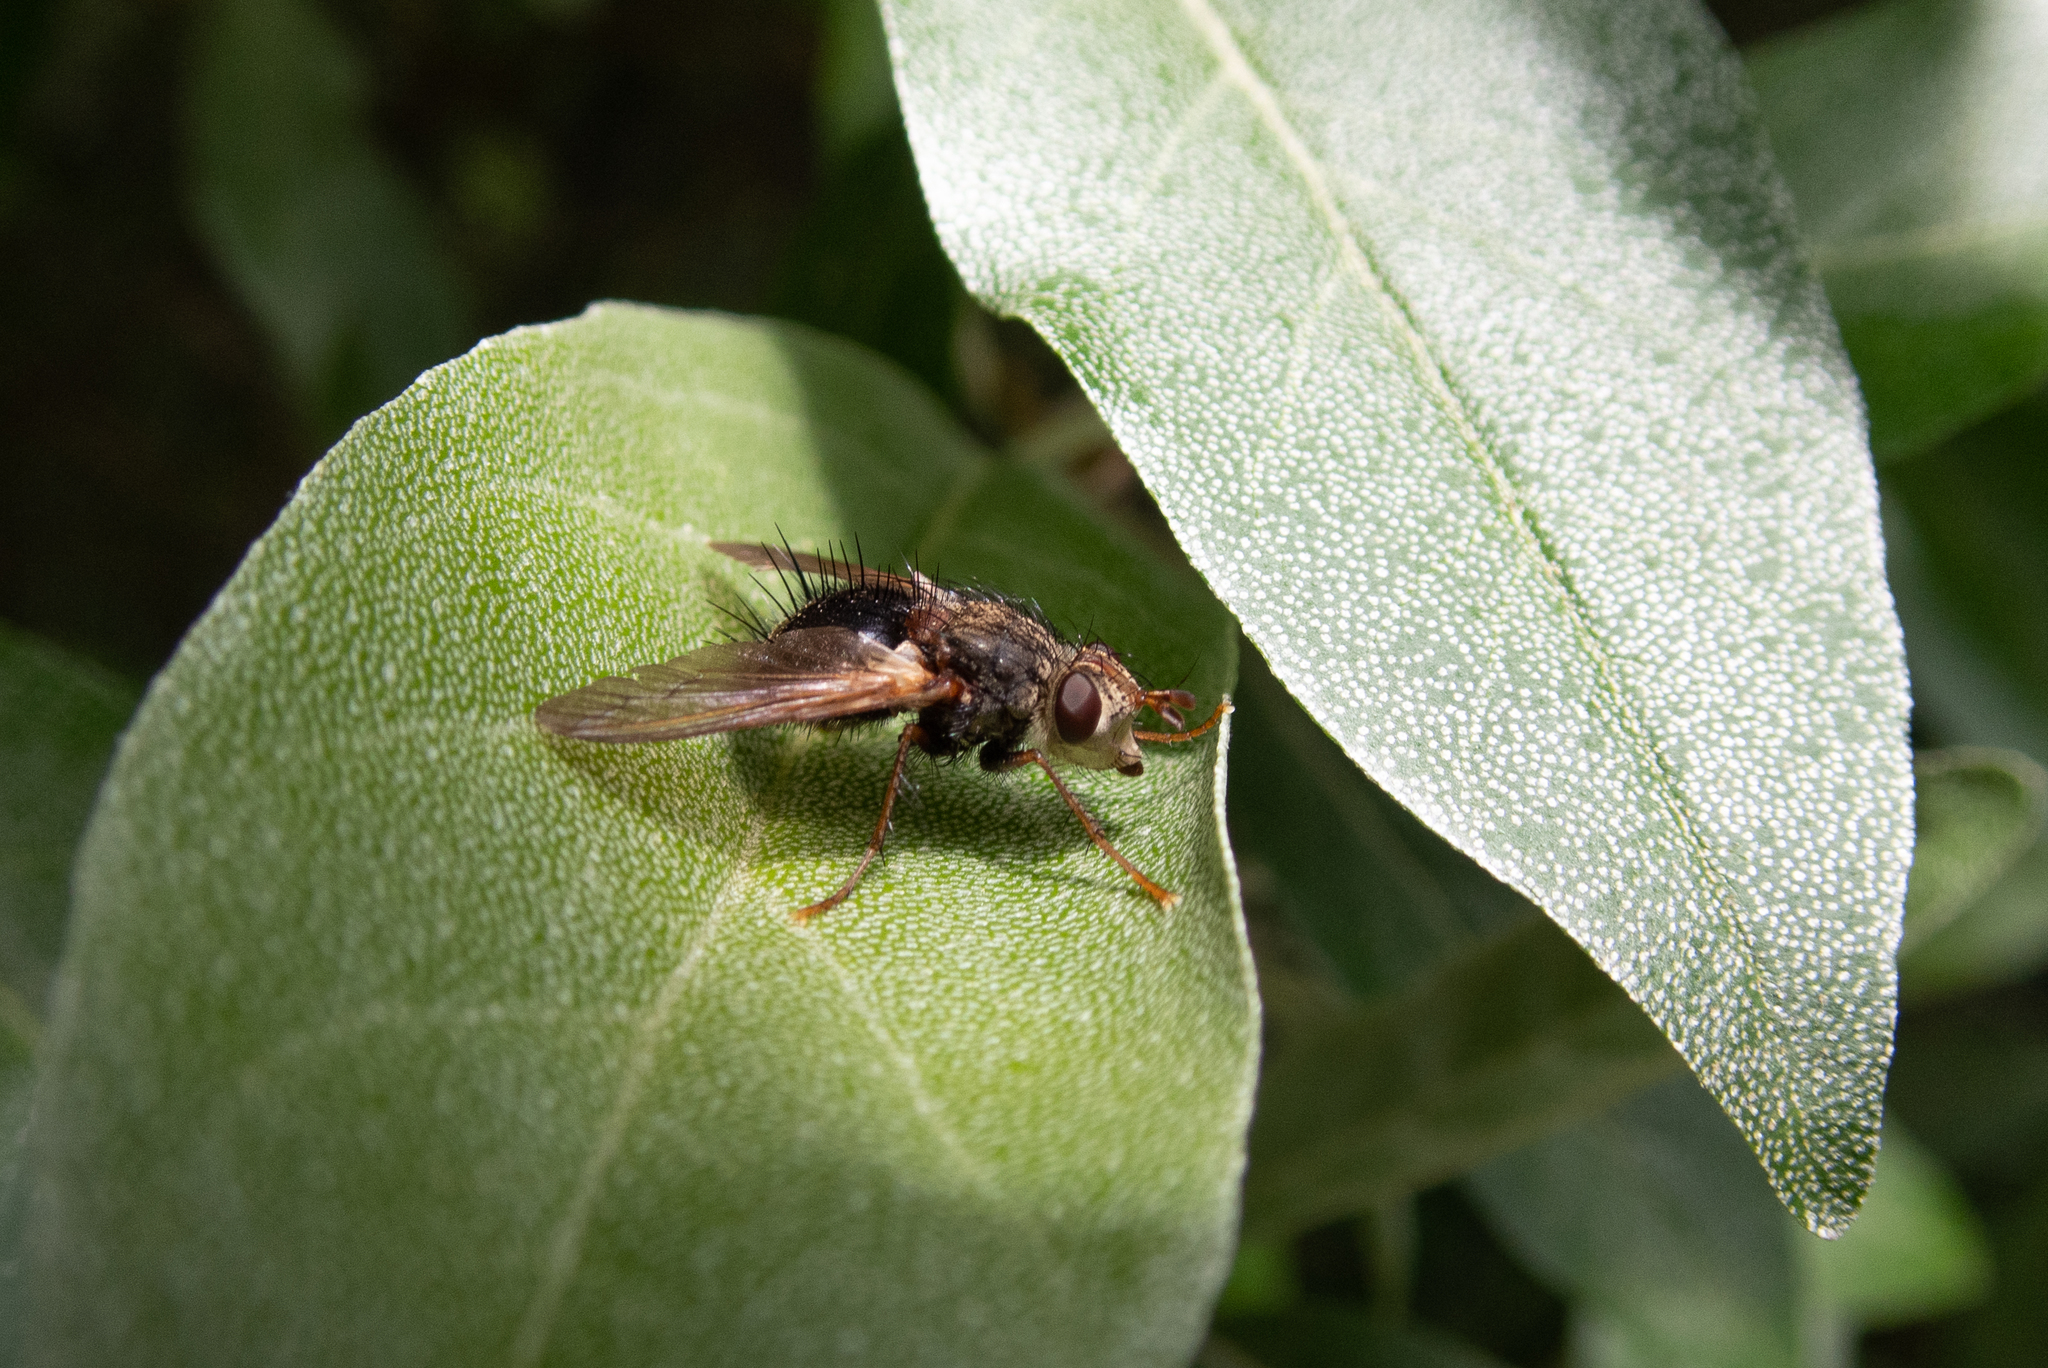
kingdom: Animalia
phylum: Arthropoda
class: Insecta
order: Diptera
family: Tachinidae
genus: Epalpus
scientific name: Epalpus signifer
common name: Early tachinid fly
